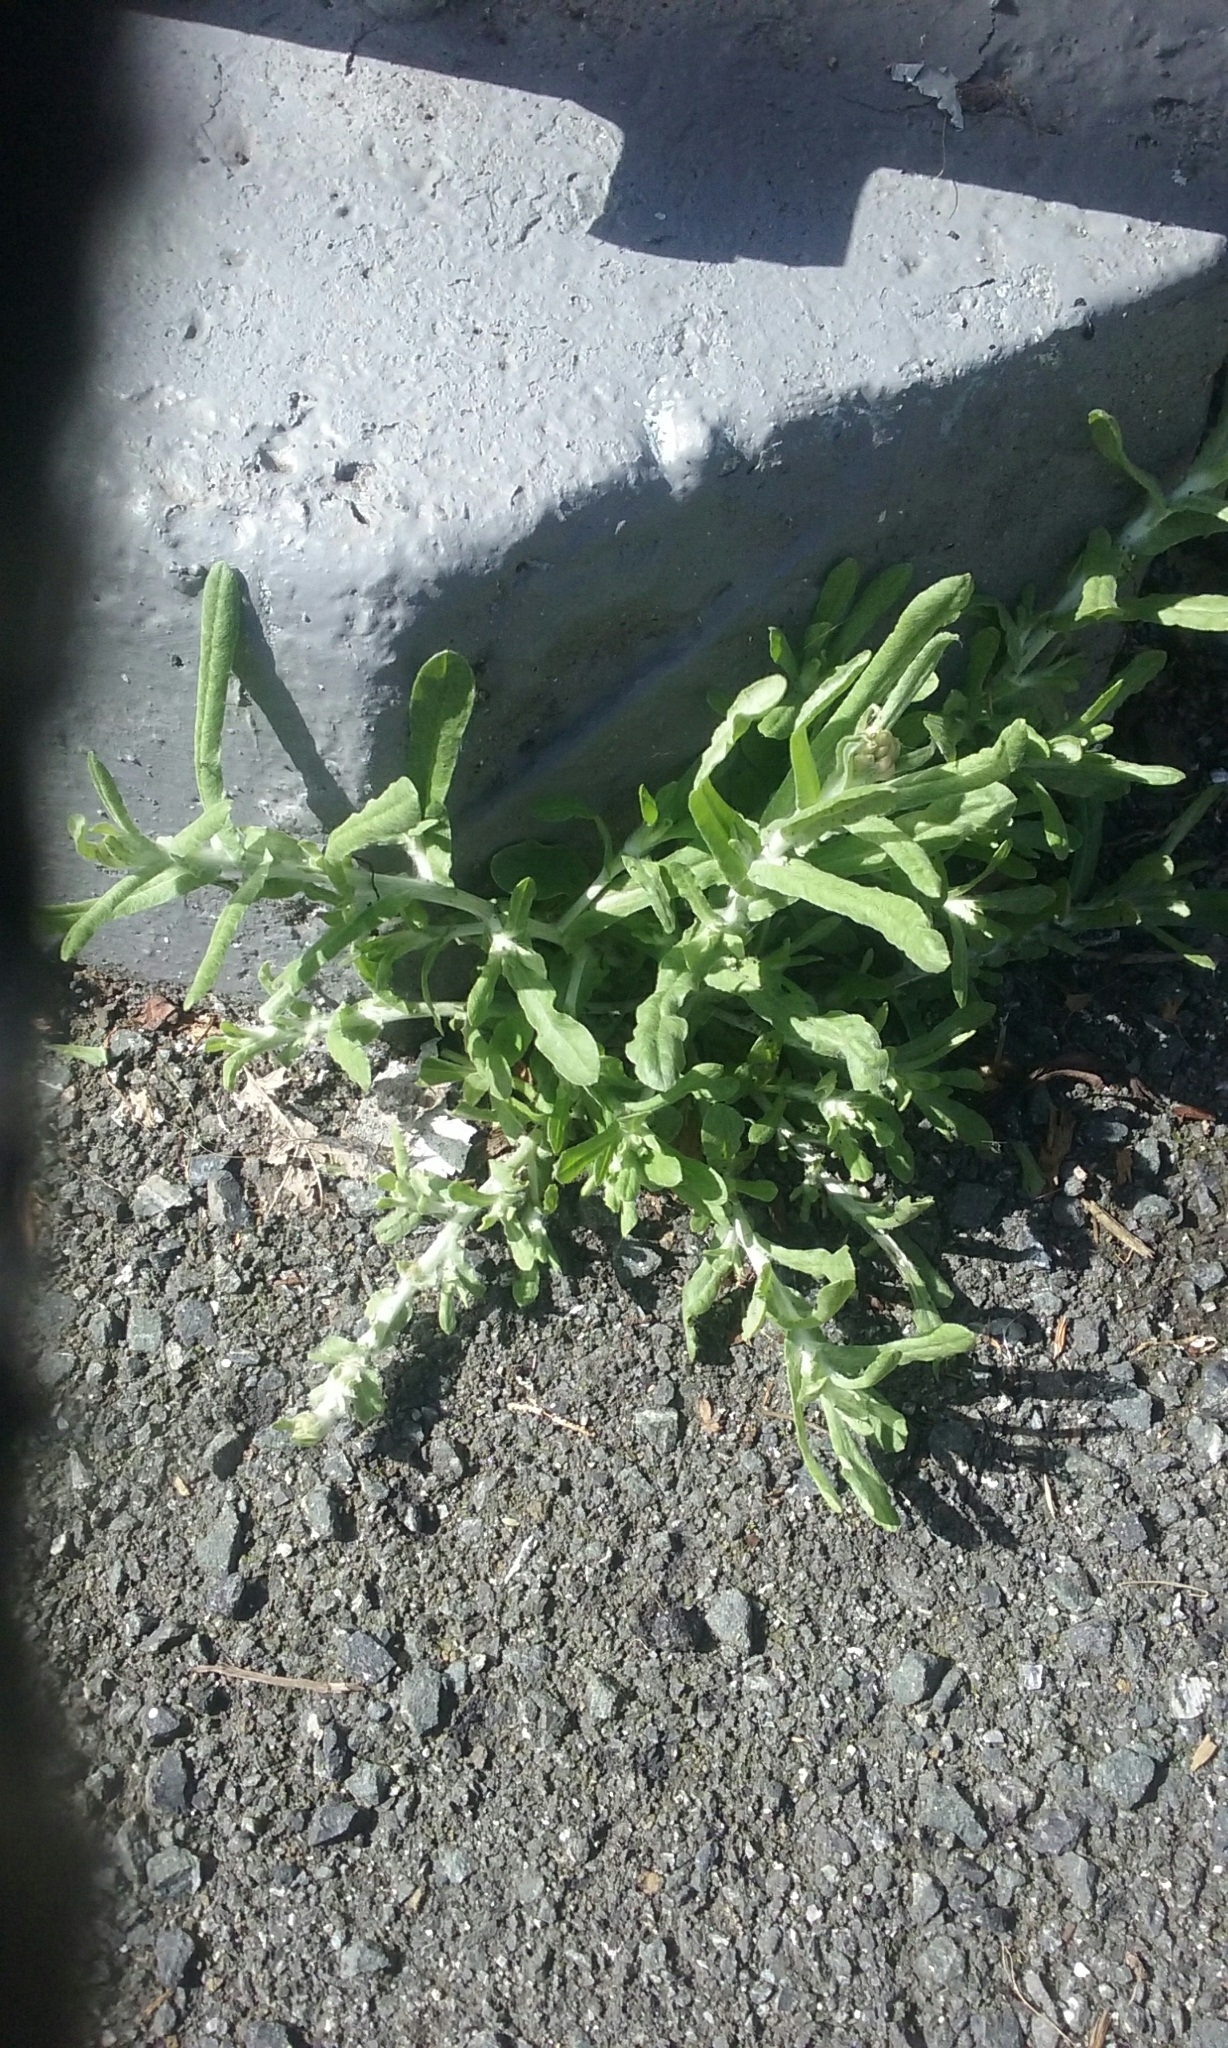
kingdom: Plantae
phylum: Tracheophyta
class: Magnoliopsida
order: Asterales
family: Asteraceae
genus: Helichrysum
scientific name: Helichrysum luteoalbum
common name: Daisy
